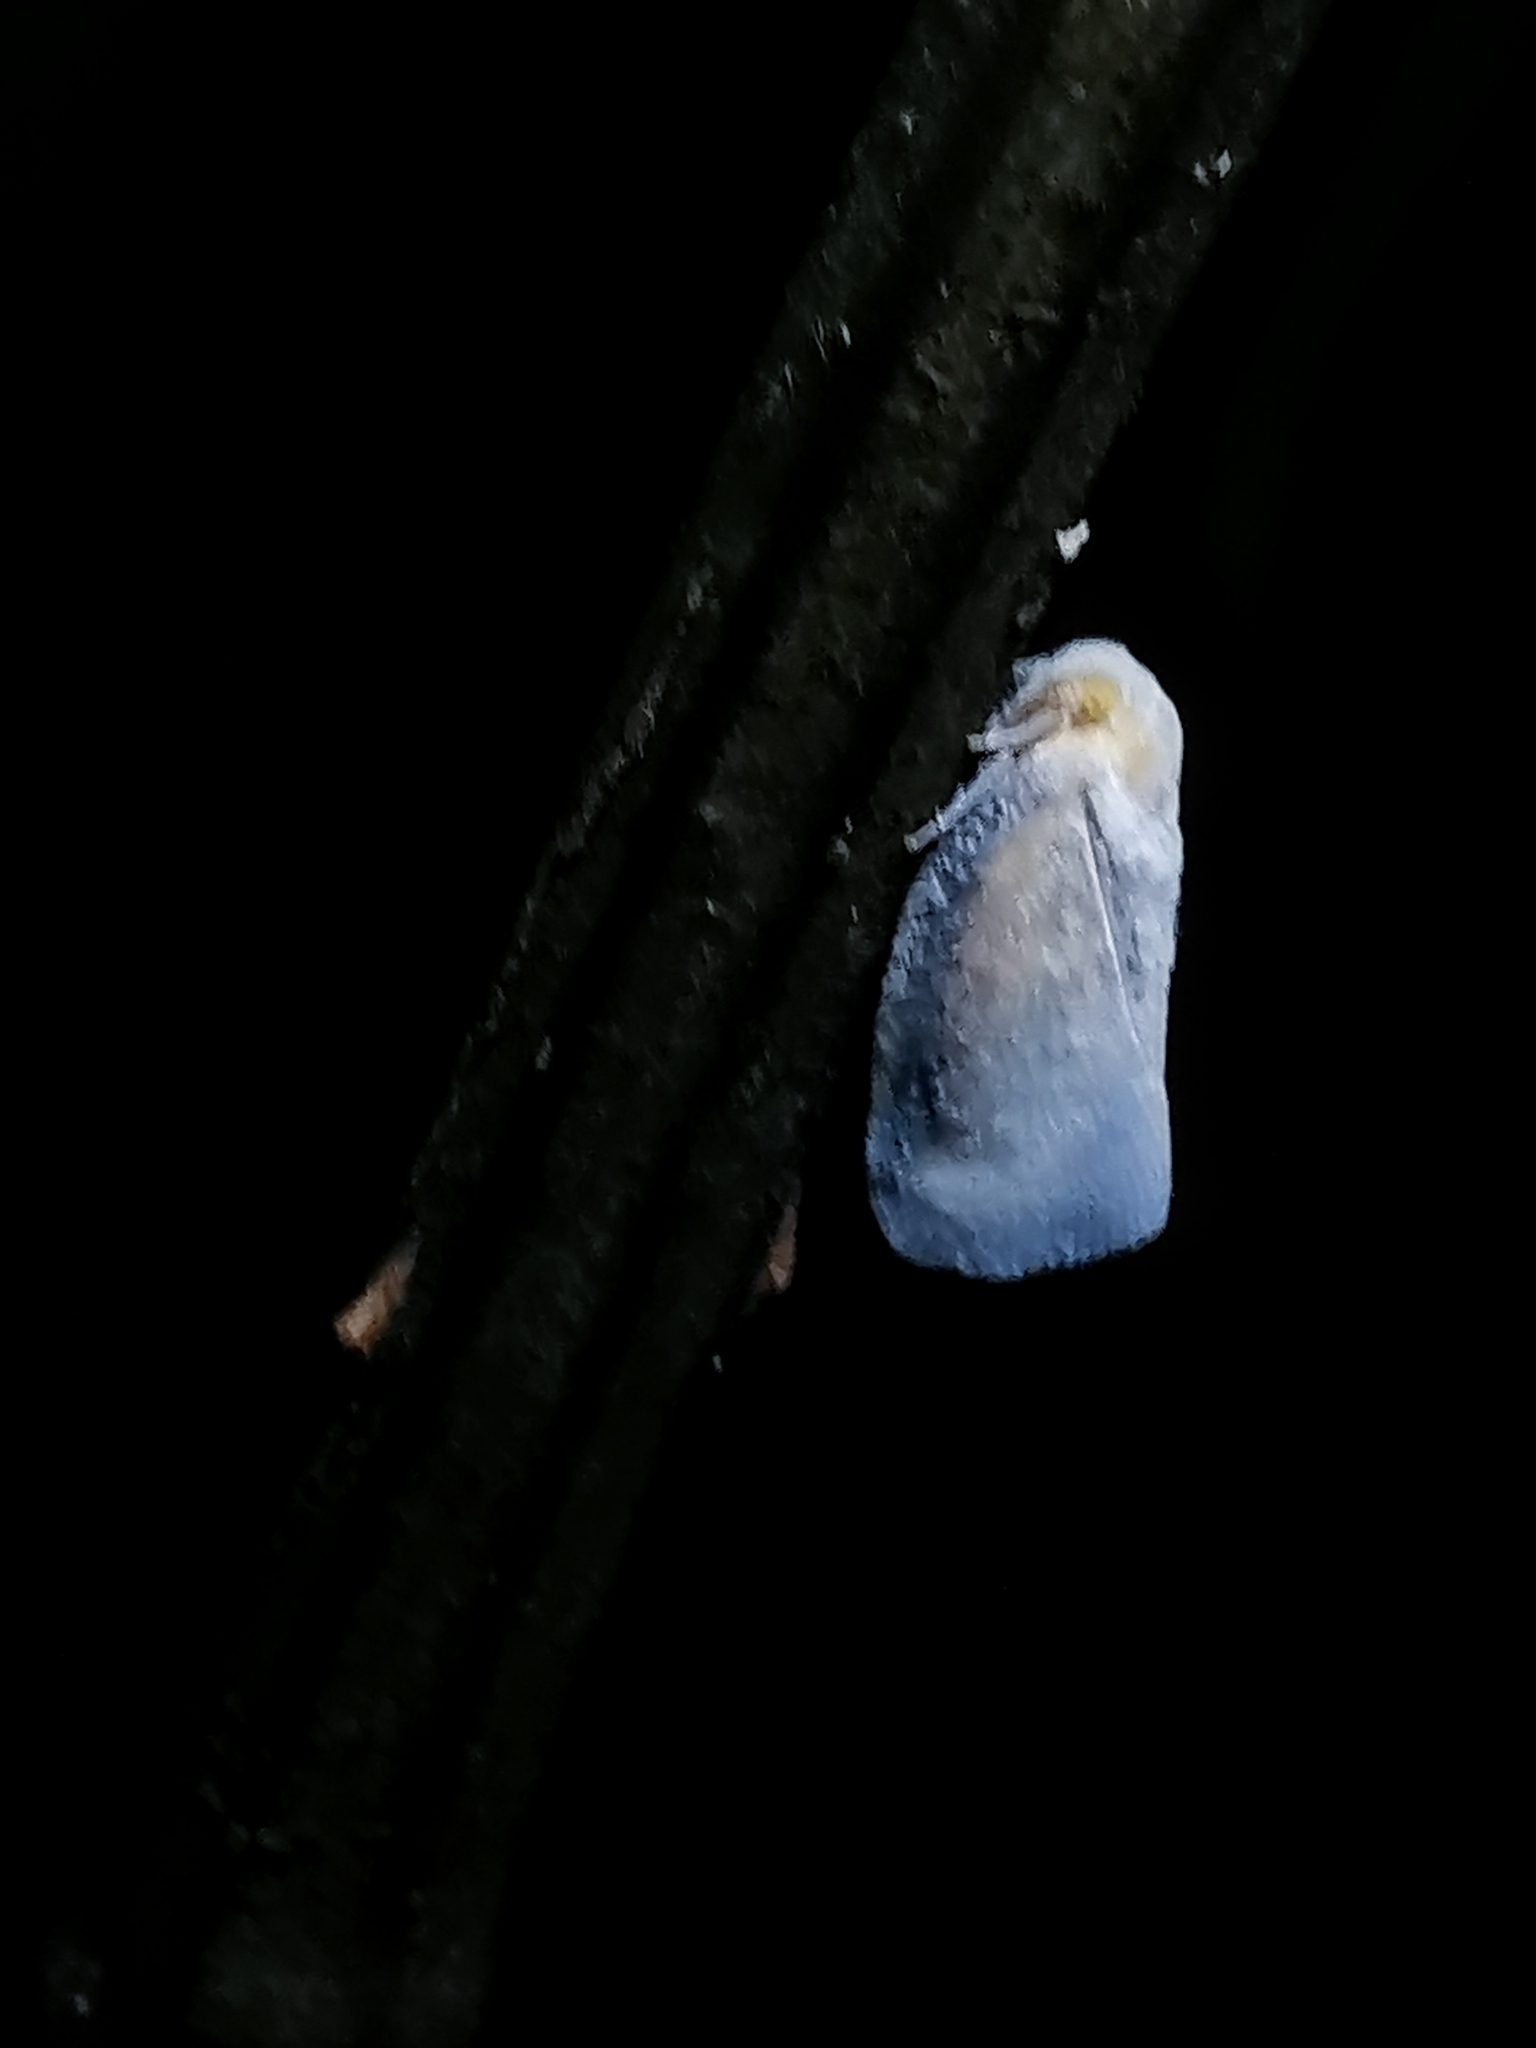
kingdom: Animalia
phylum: Arthropoda
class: Insecta
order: Hemiptera
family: Flatidae
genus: Flatomorpha
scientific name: Flatomorpha umbrimargo
